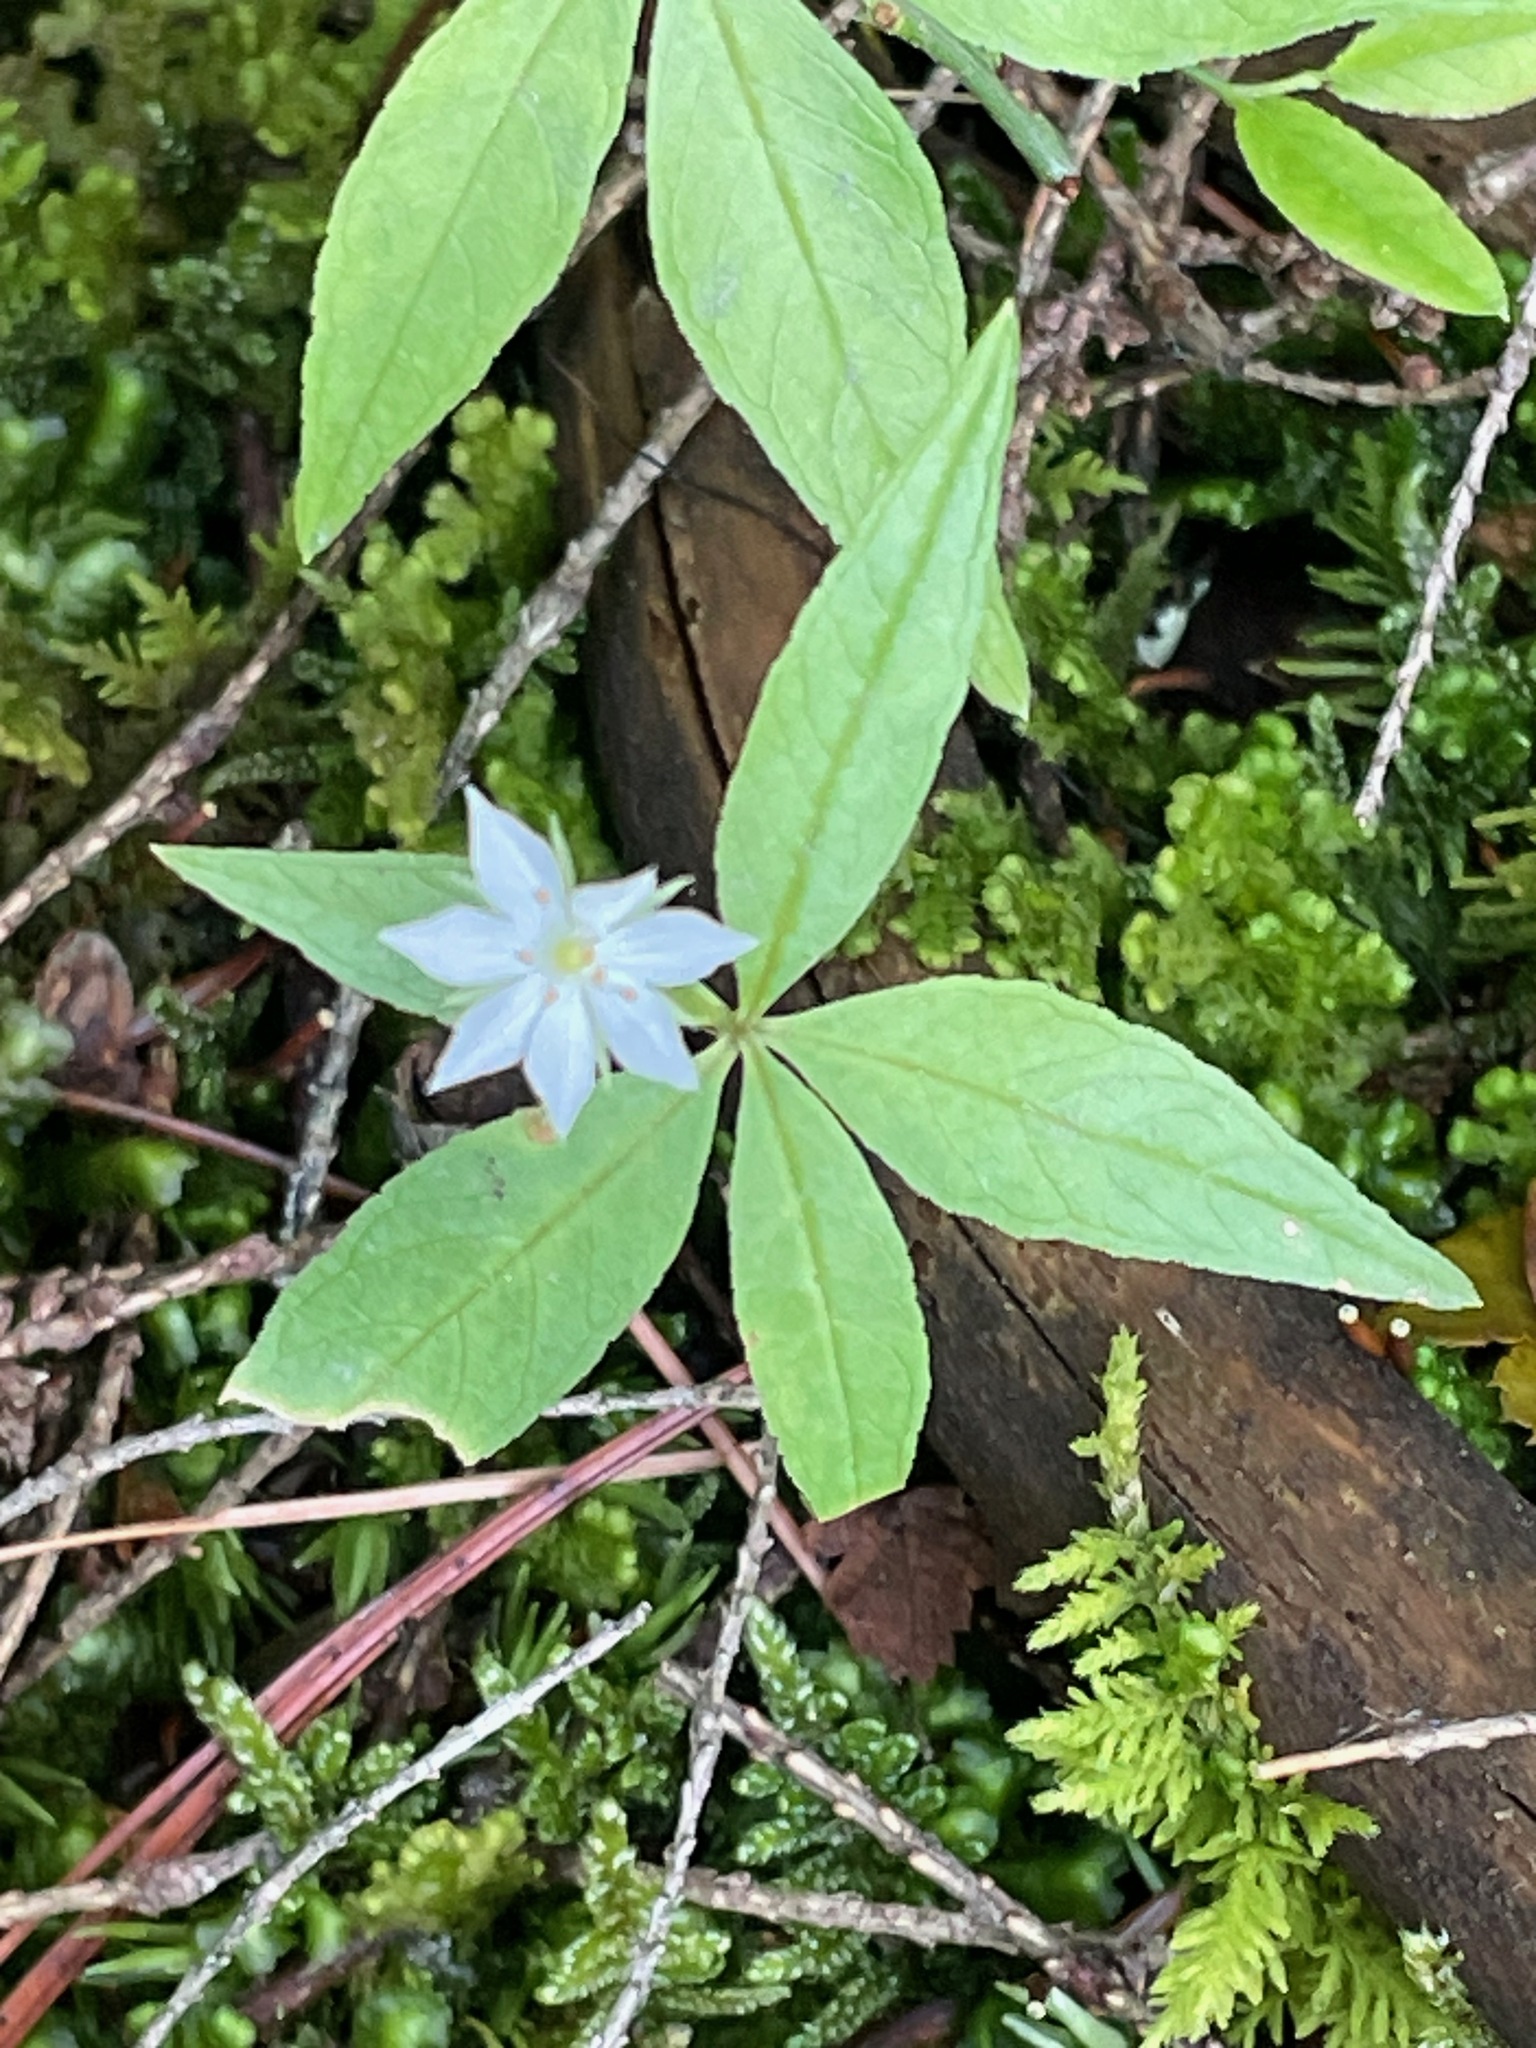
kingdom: Plantae
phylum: Tracheophyta
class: Magnoliopsida
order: Ericales
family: Primulaceae
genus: Lysimachia
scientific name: Lysimachia borealis
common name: American starflower
